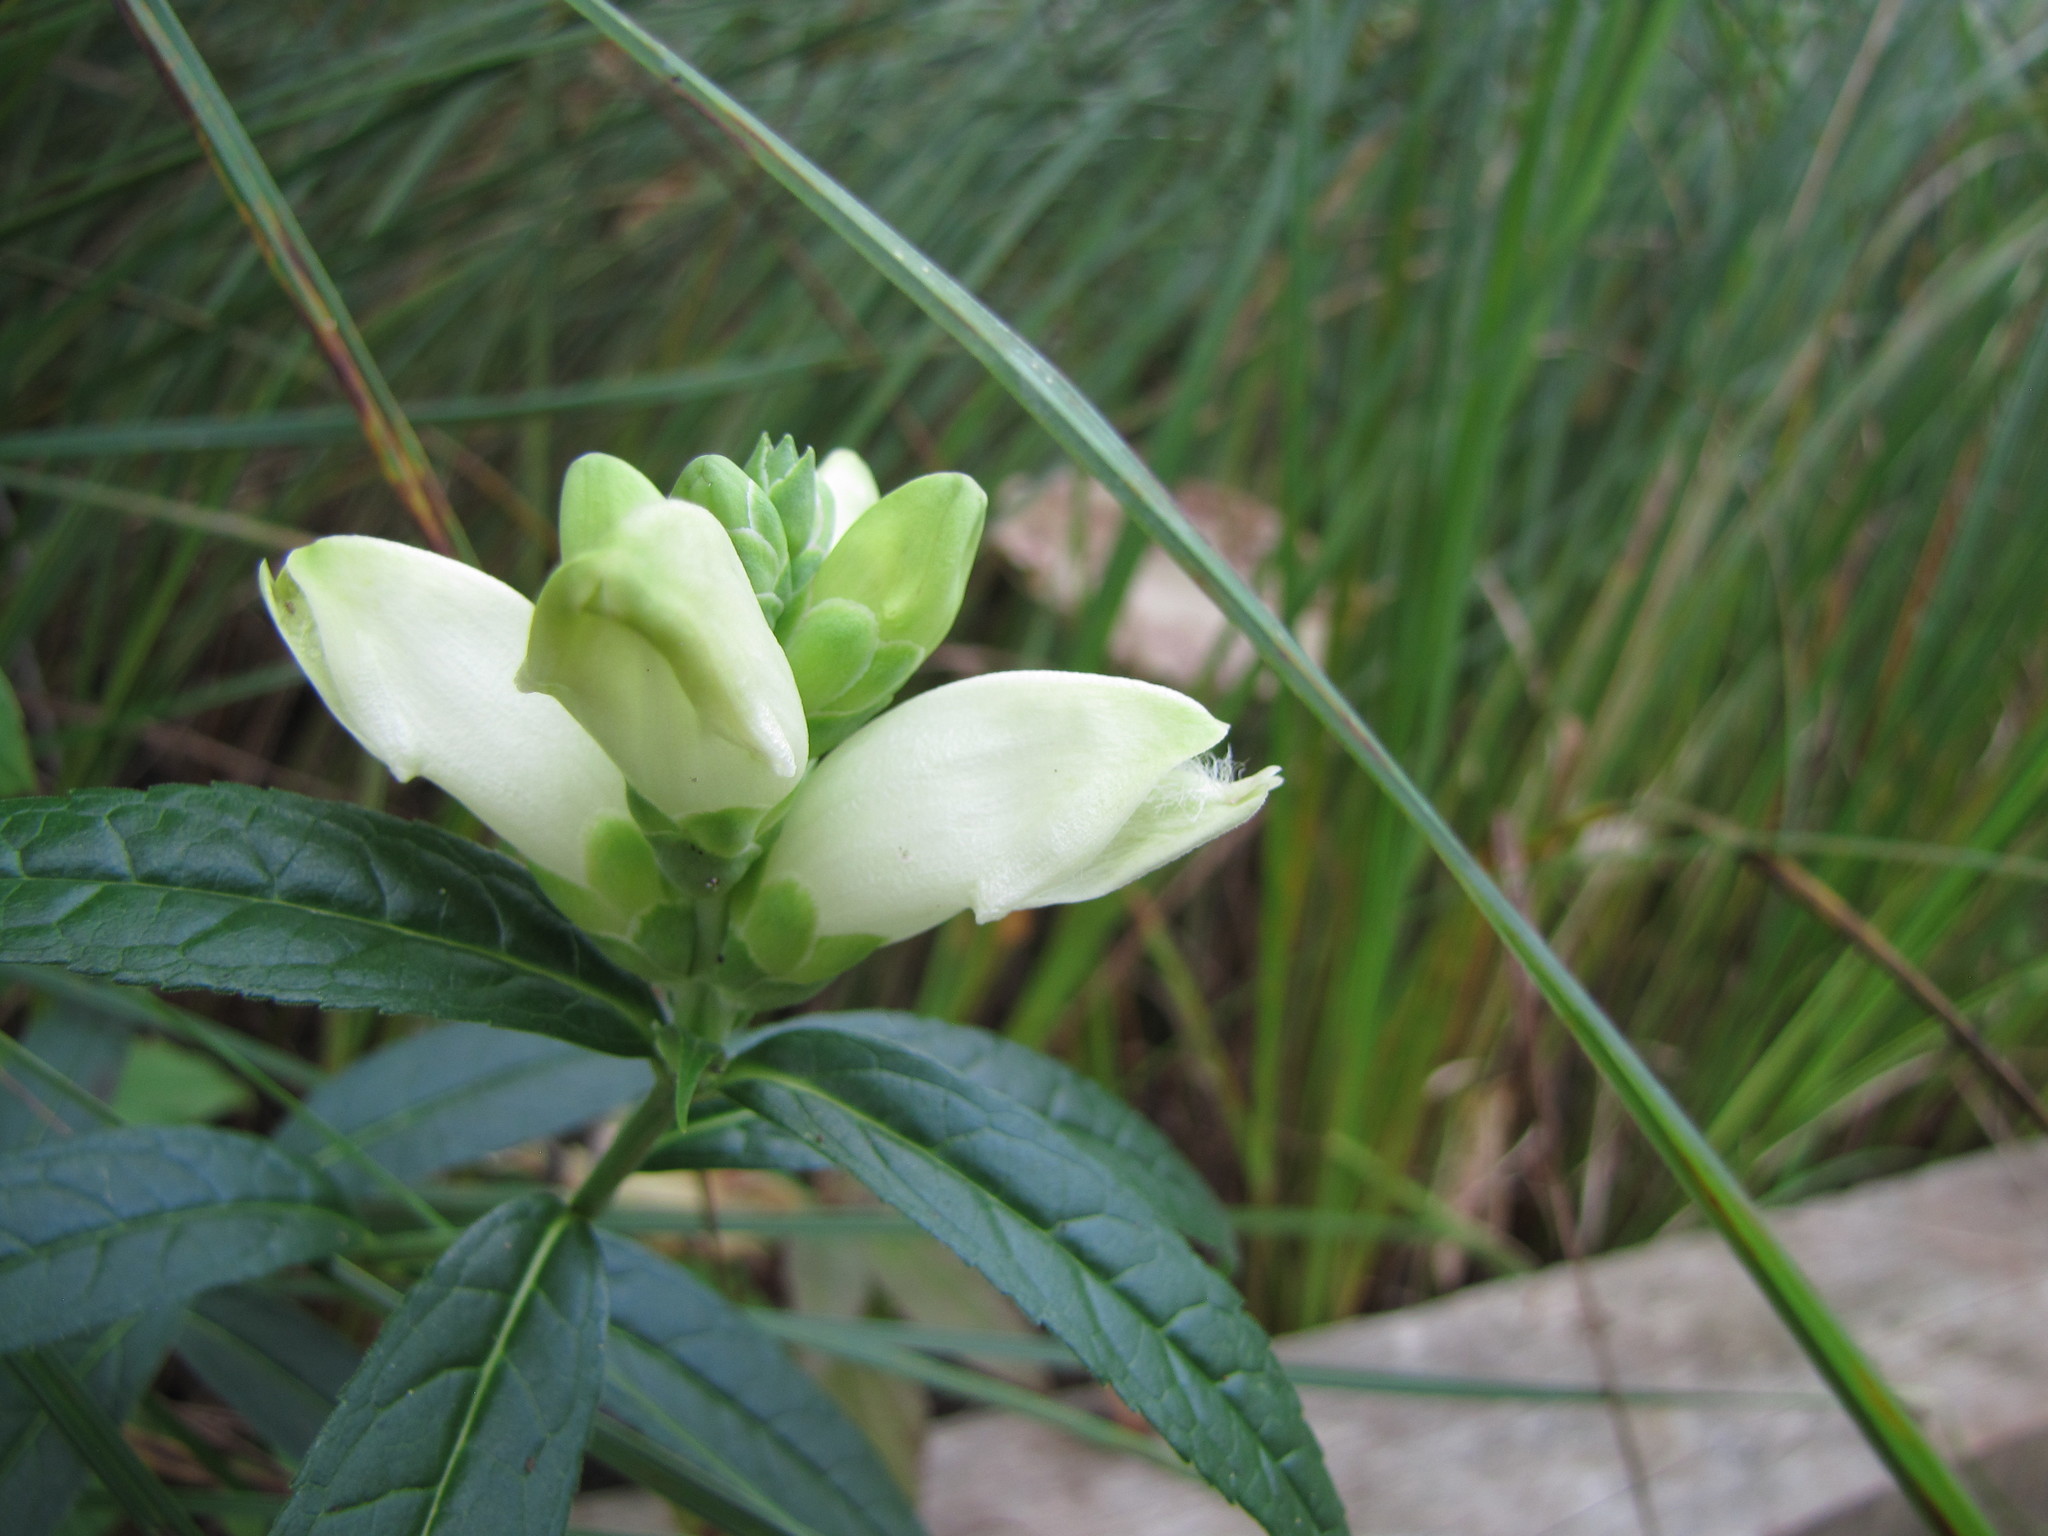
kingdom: Plantae
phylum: Tracheophyta
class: Magnoliopsida
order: Lamiales
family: Plantaginaceae
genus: Chelone
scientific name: Chelone glabra
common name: Snakehead
